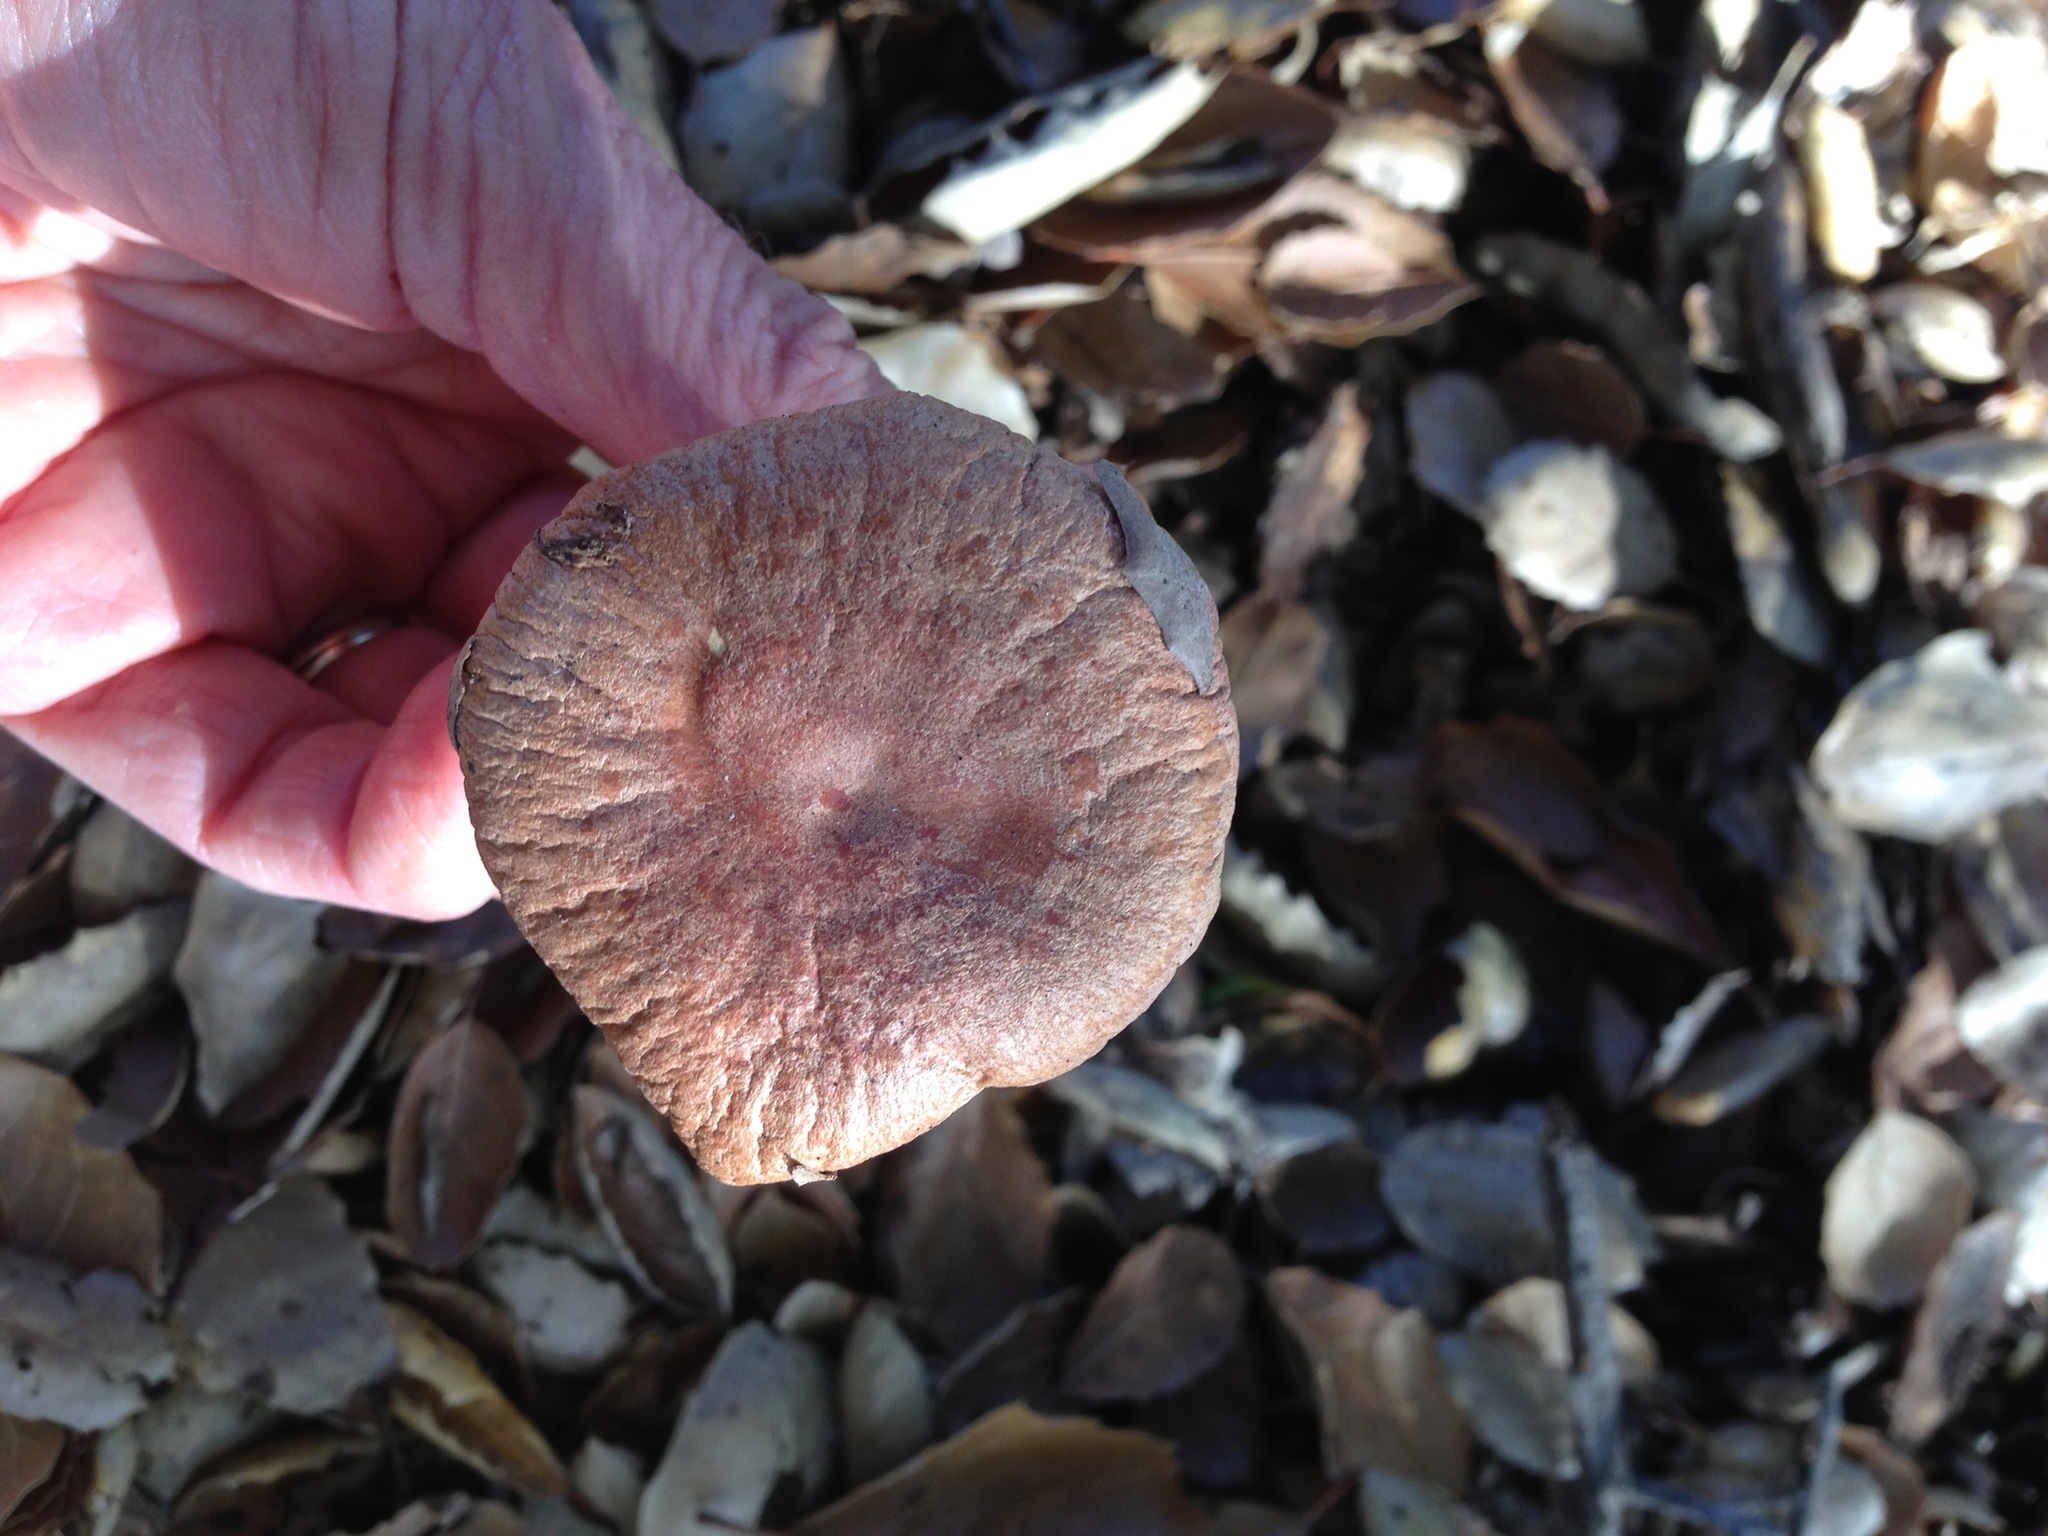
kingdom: Fungi
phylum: Basidiomycota
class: Agaricomycetes
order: Russulales
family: Russulaceae
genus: Lactarius
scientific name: Lactarius xanthogalactus
